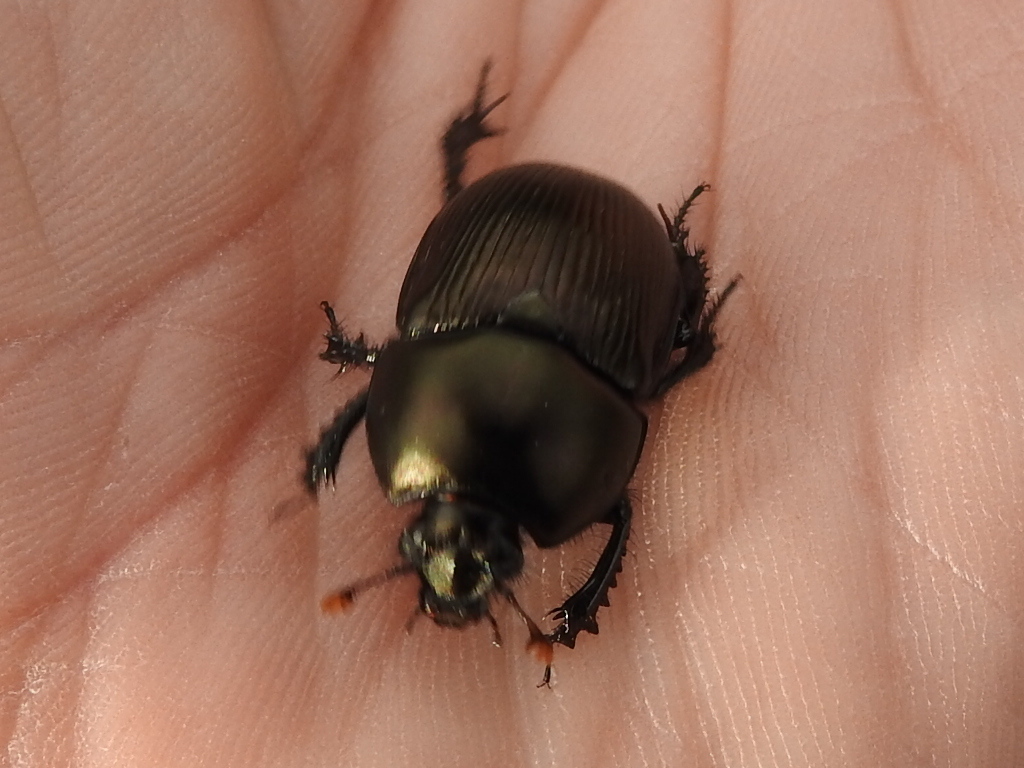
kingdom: Animalia
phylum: Arthropoda
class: Insecta
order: Coleoptera
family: Geotrupidae
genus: Cnemotrupes
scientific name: Cnemotrupes semiopacus
